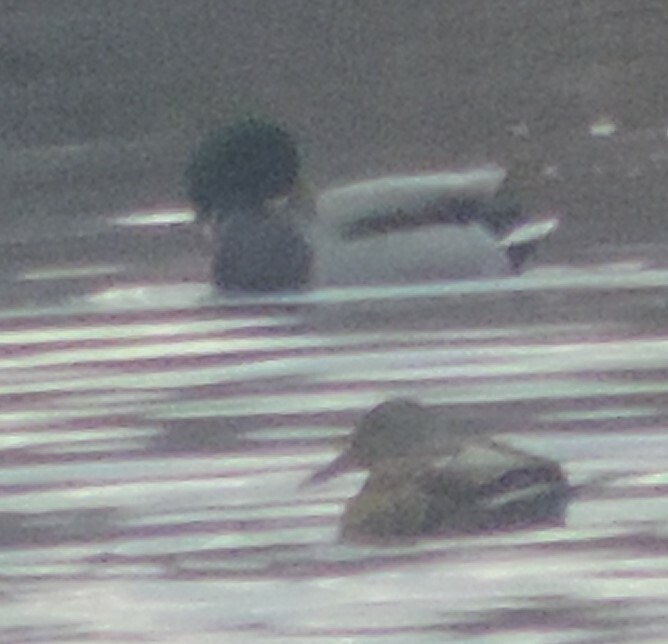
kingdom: Animalia
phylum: Chordata
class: Aves
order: Anseriformes
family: Anatidae
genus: Anas
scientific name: Anas platyrhynchos
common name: Mallard
